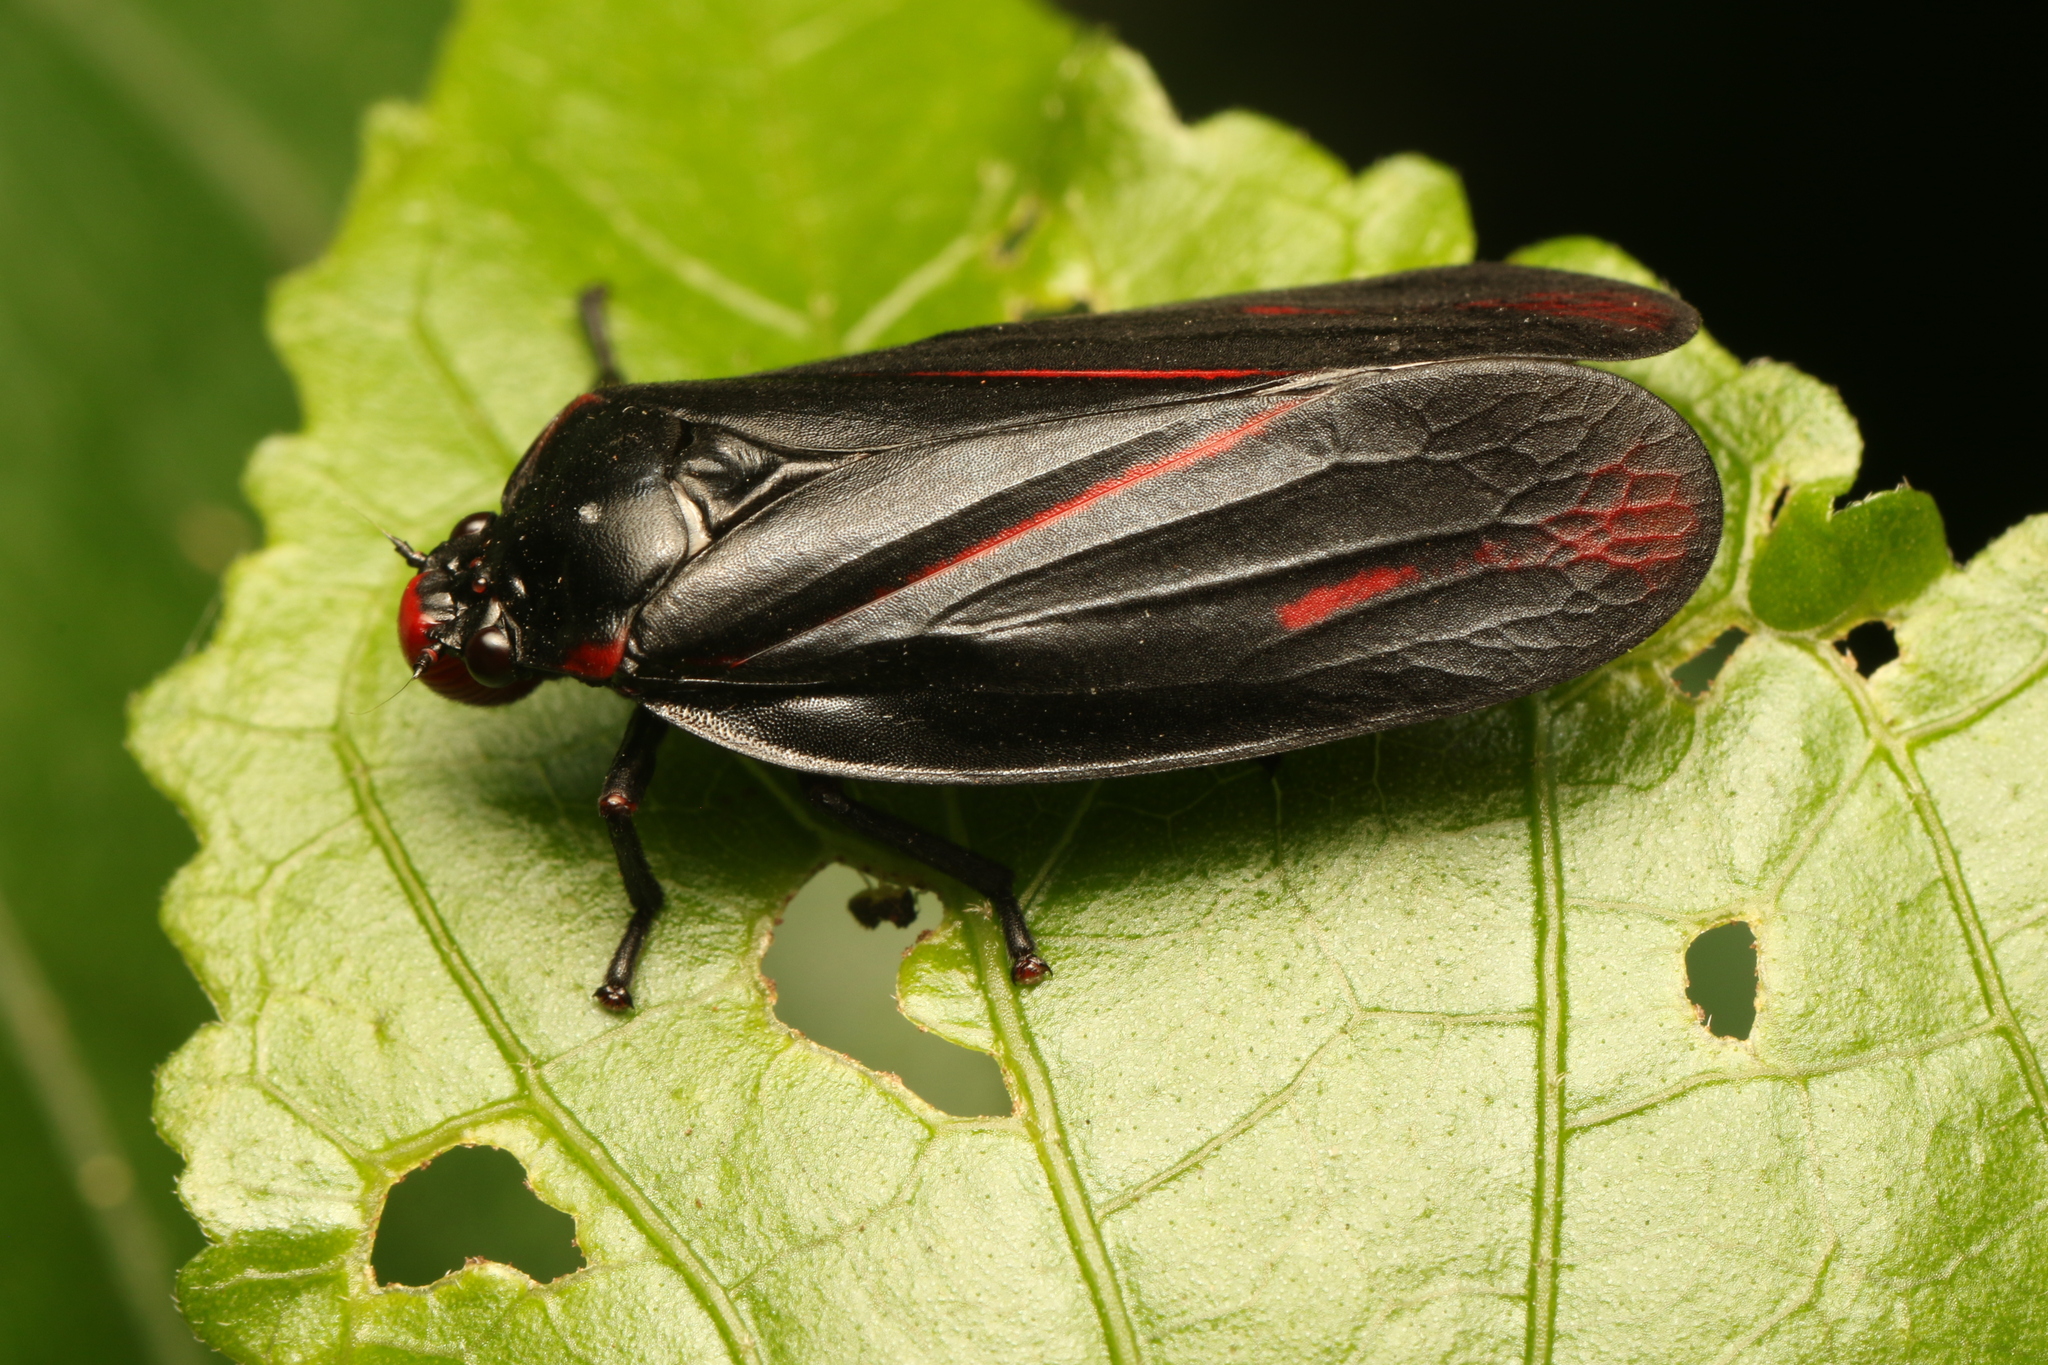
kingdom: Animalia
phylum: Arthropoda
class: Insecta
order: Hemiptera
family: Cercopidae
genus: Tomaspis
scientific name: Tomaspis furcata
